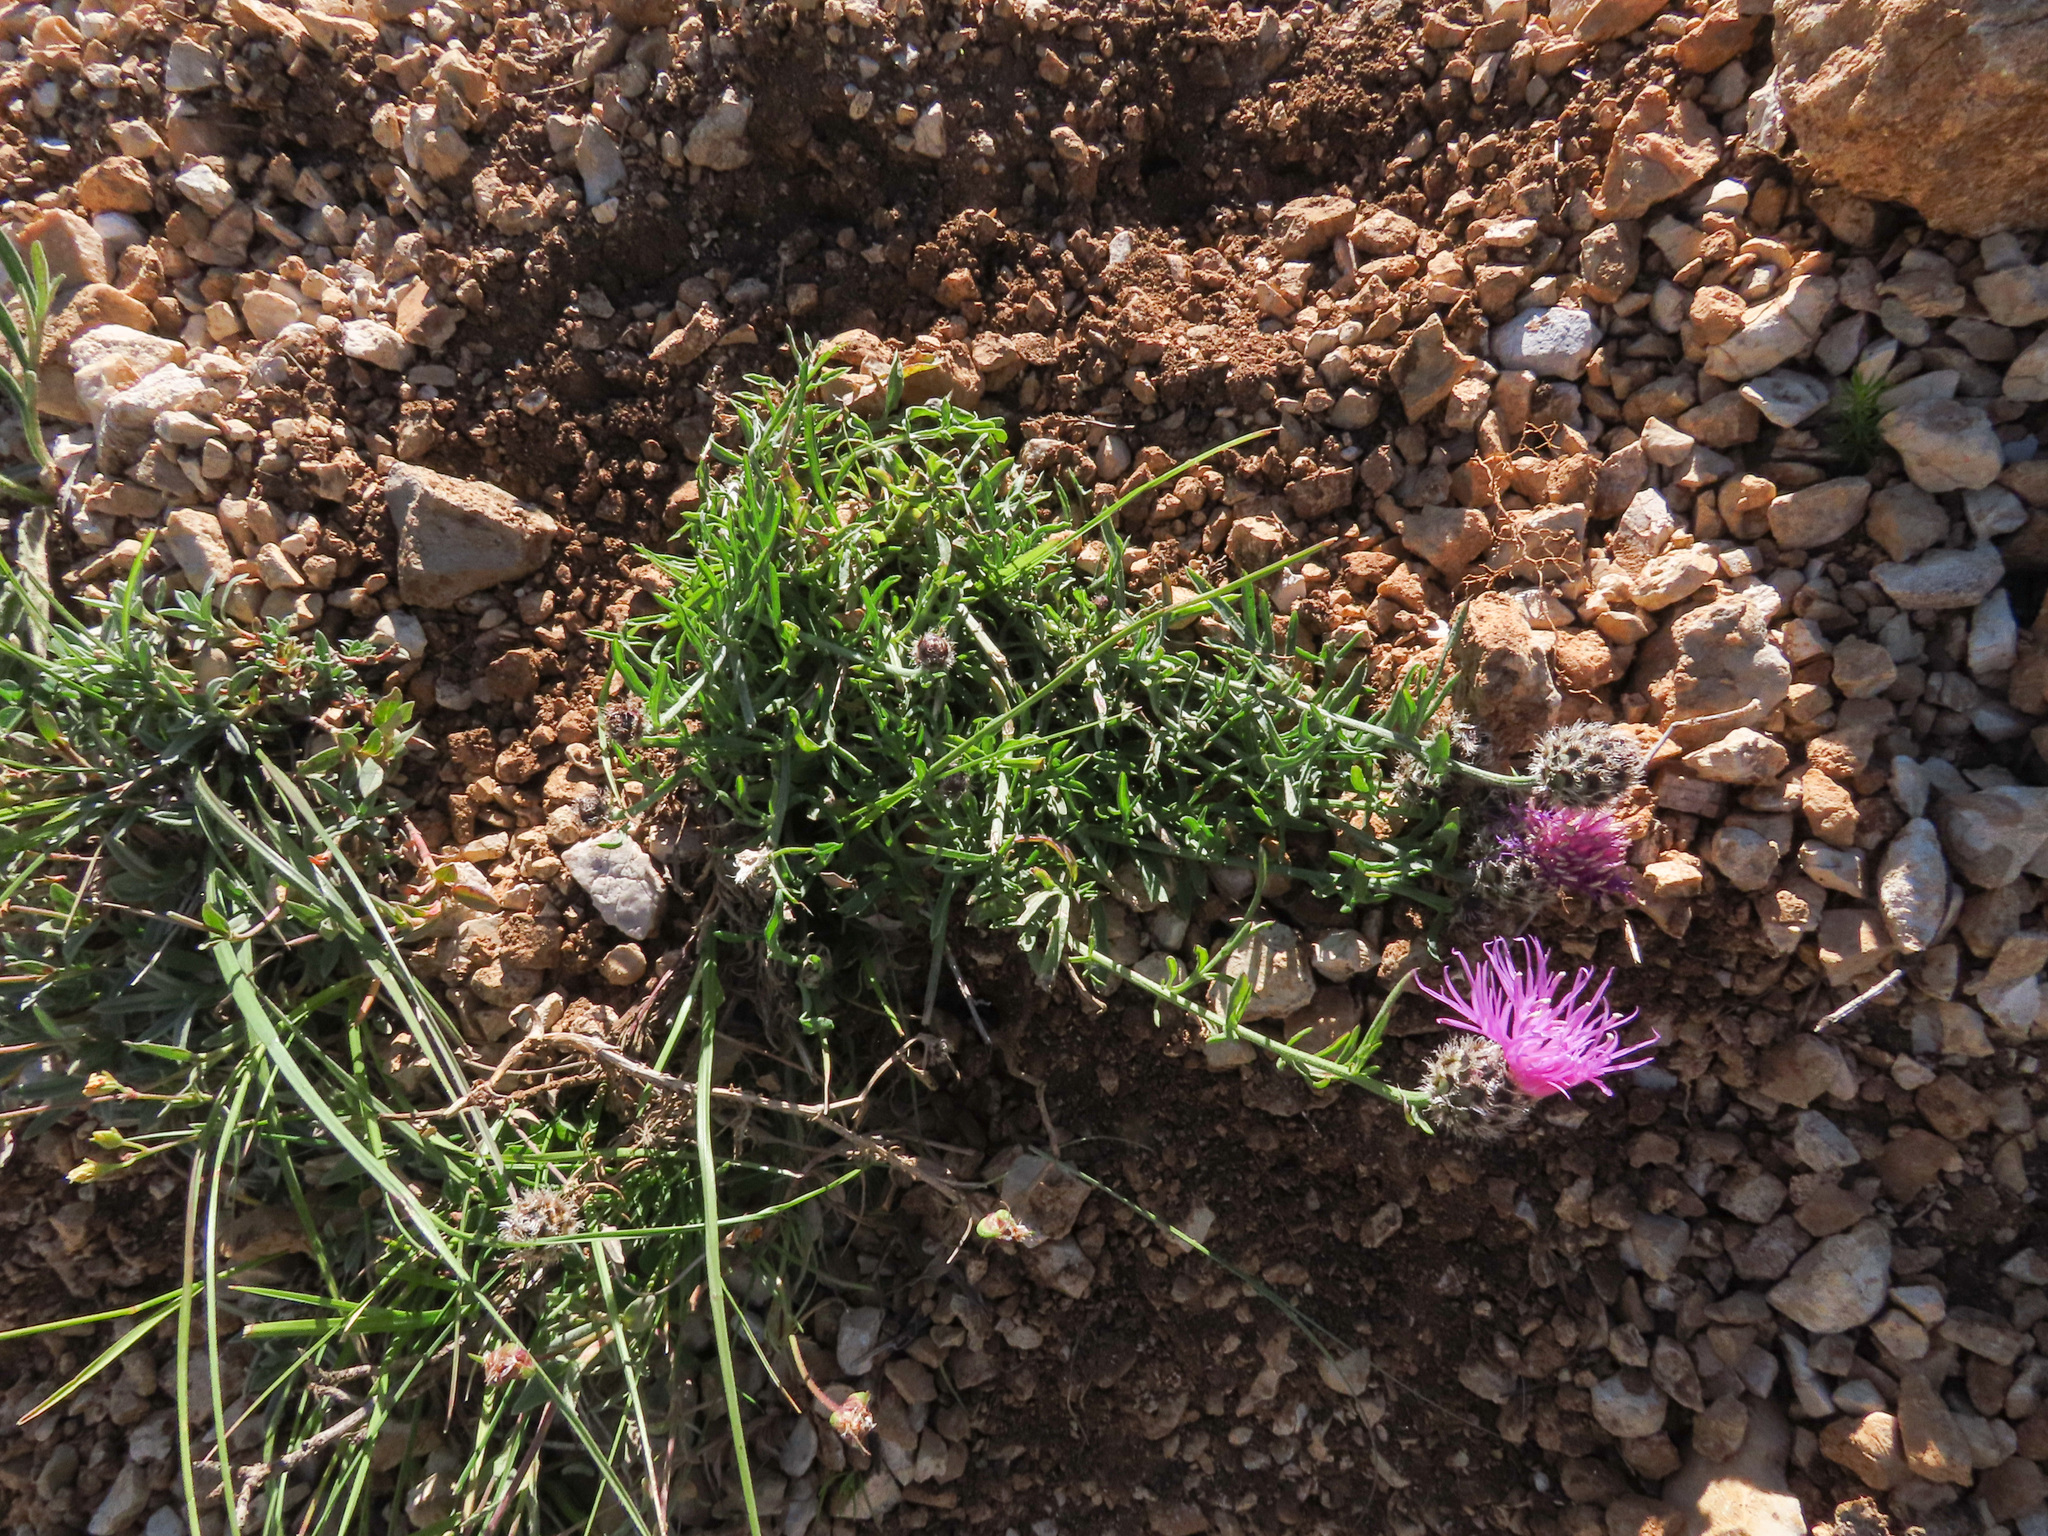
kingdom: Plantae
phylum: Tracheophyta
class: Magnoliopsida
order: Asterales
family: Asteraceae
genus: Centaurea
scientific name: Centaurea ambigua
